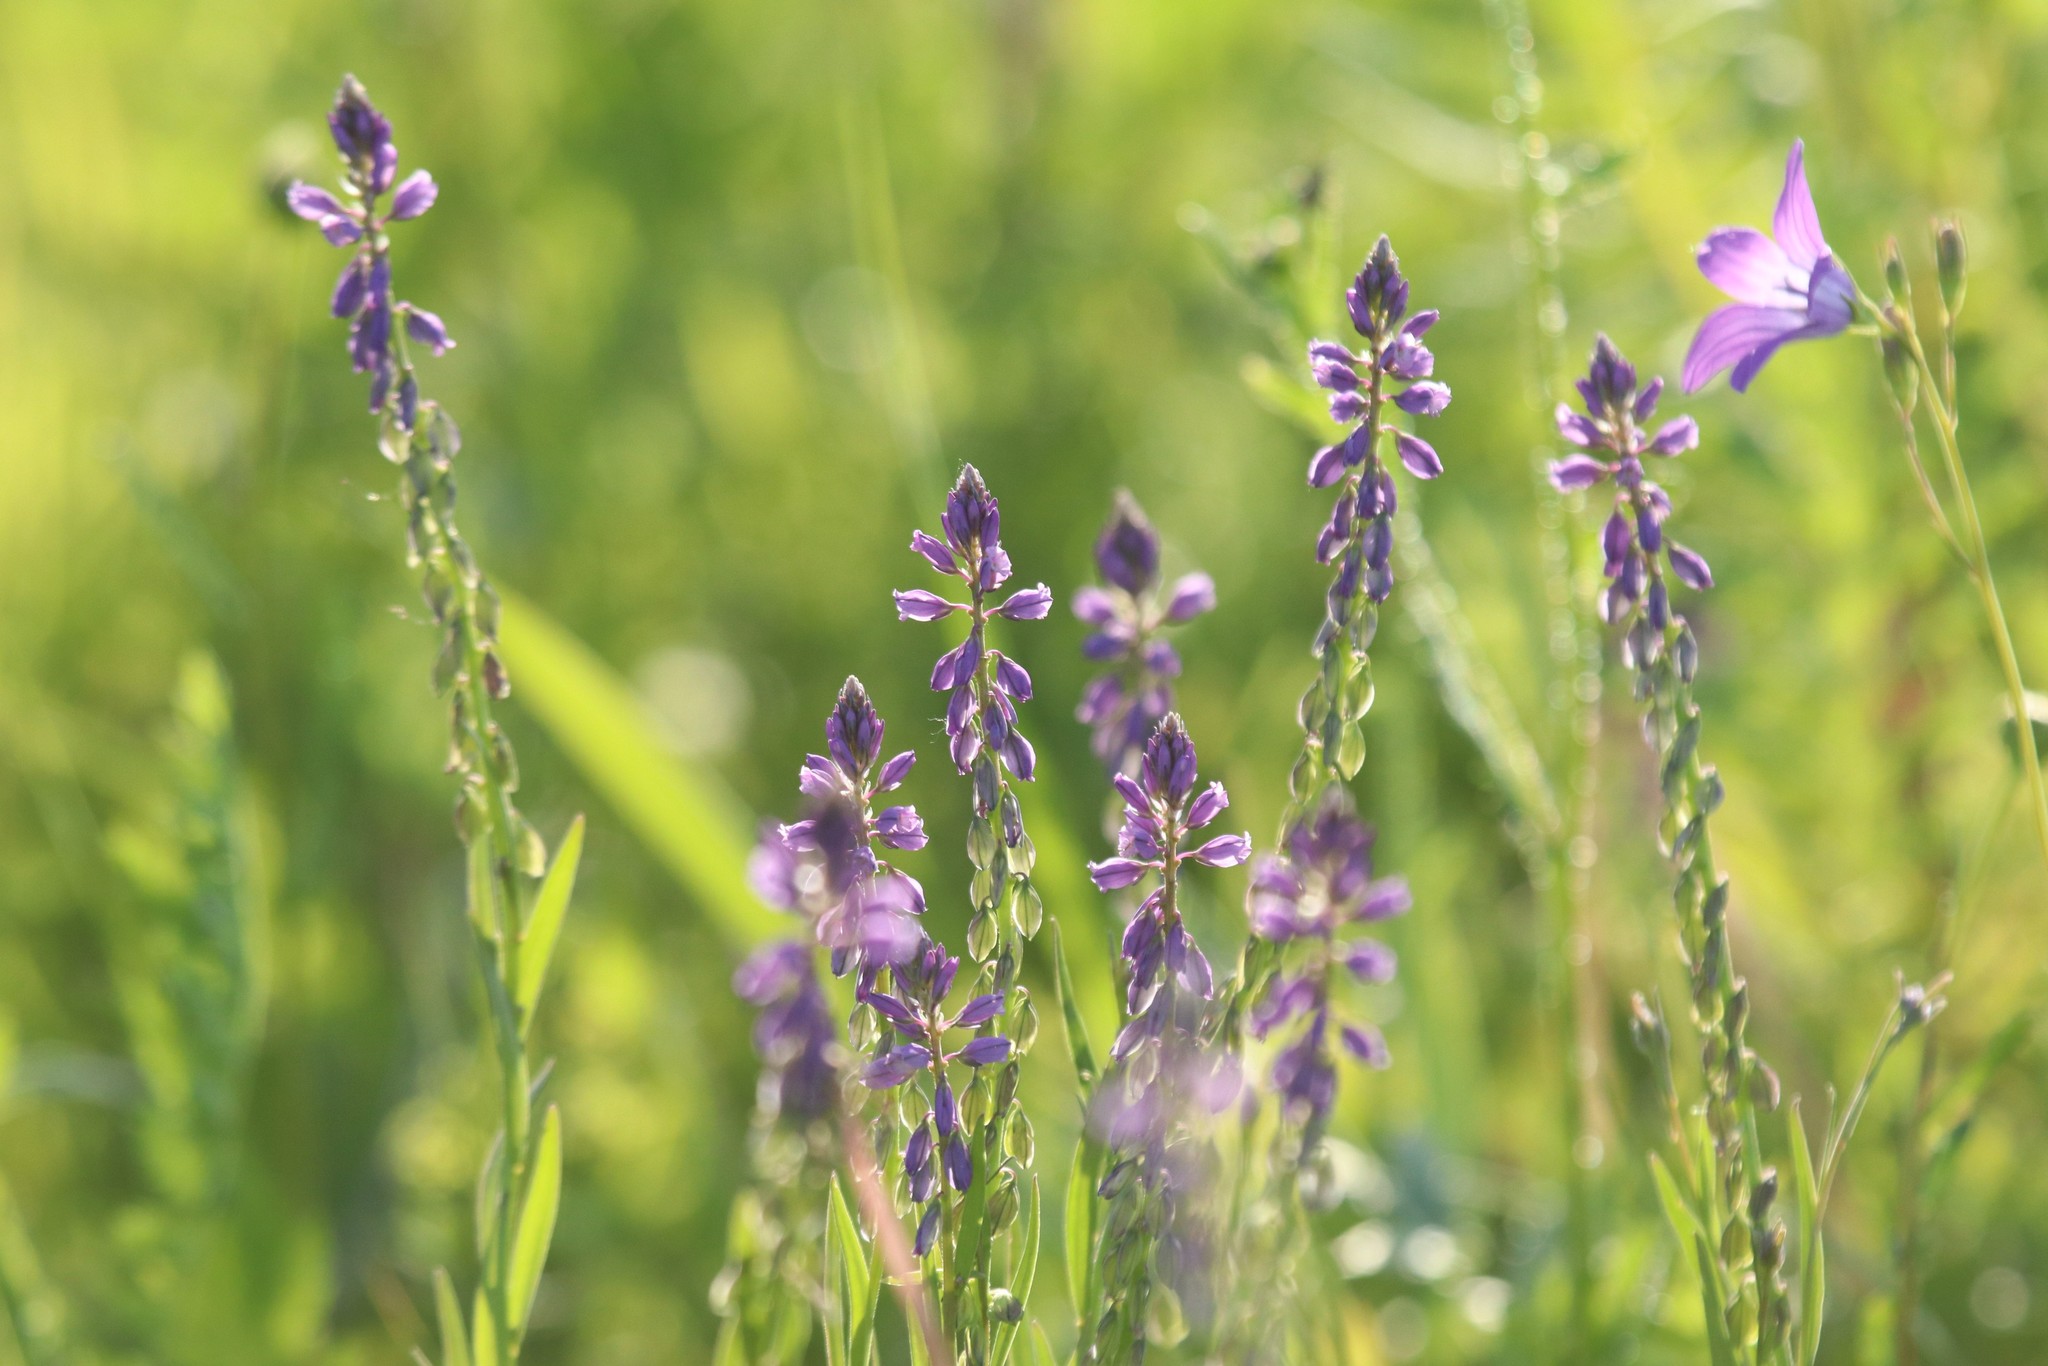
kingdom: Plantae
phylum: Tracheophyta
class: Magnoliopsida
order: Fabales
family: Polygalaceae
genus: Polygala
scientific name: Polygala comosa
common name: Tufted milkwort
